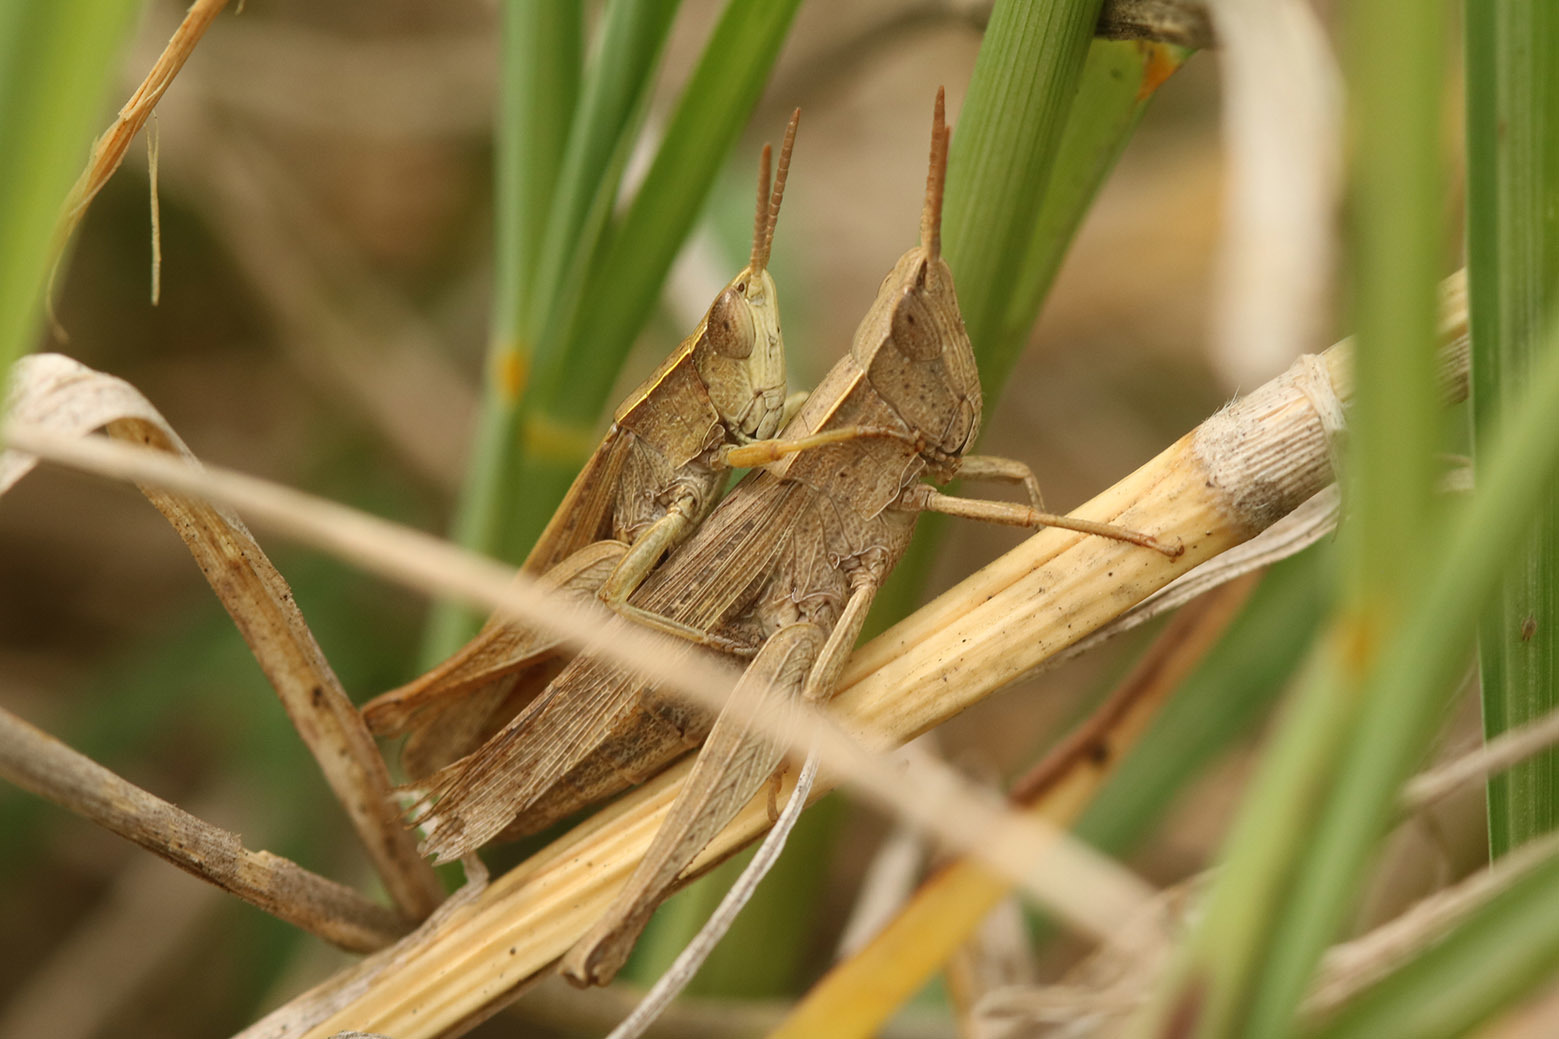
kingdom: Animalia
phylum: Arthropoda
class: Insecta
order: Orthoptera
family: Acrididae
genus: Laplatacris
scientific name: Laplatacris dispar
